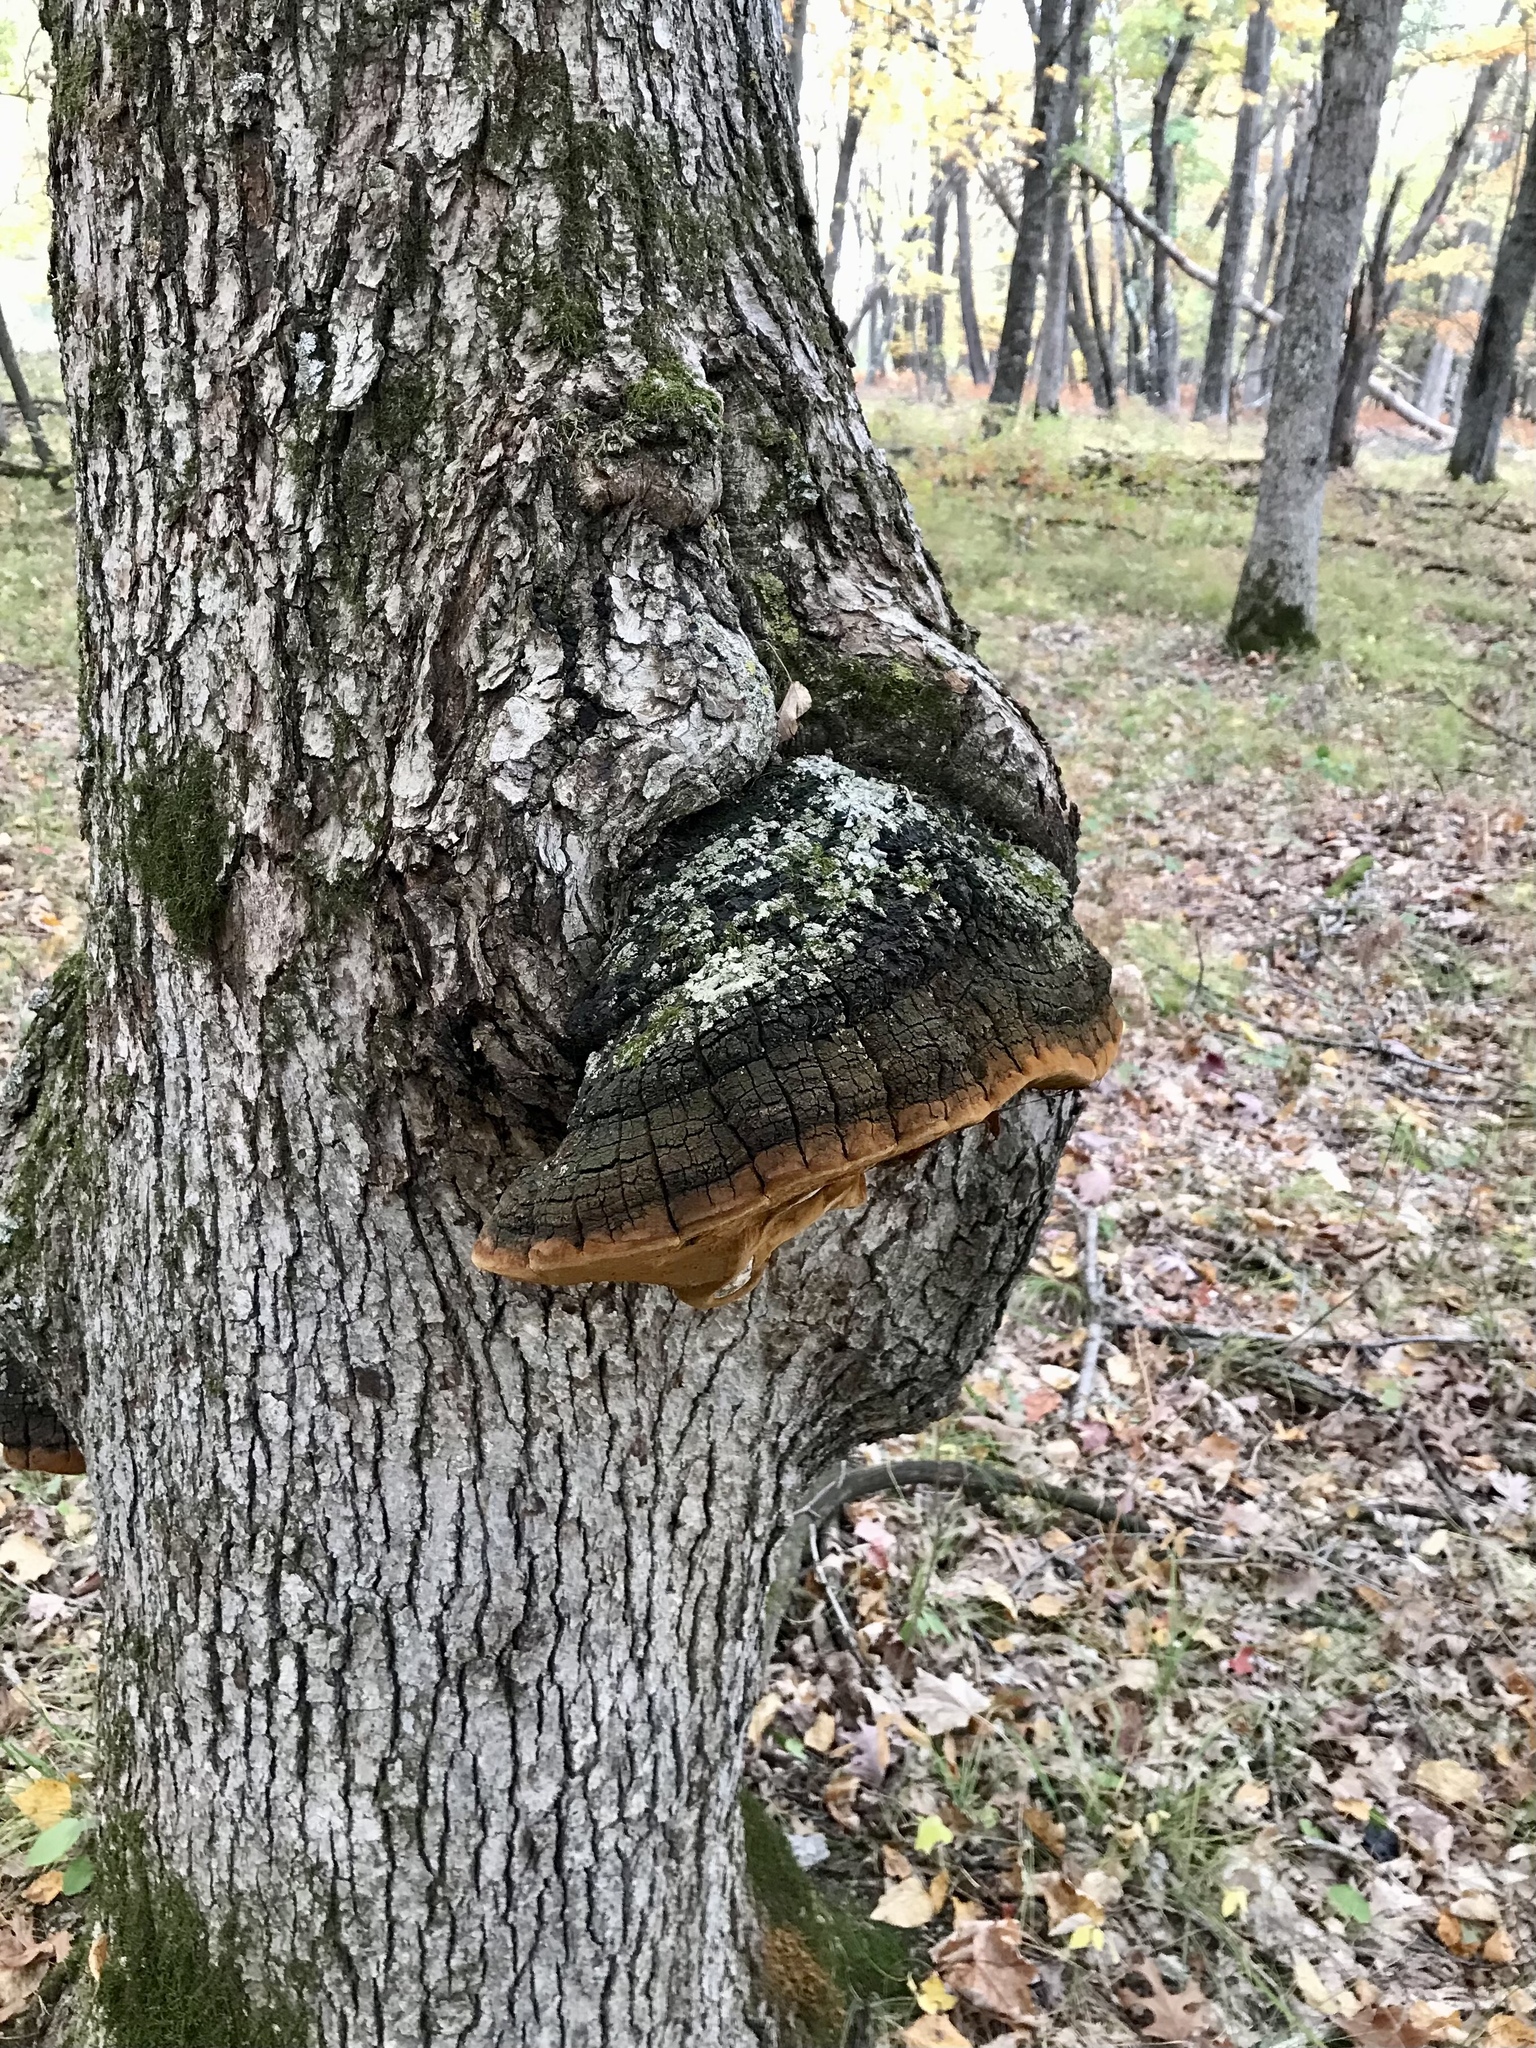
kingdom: Fungi
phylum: Basidiomycota
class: Agaricomycetes
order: Hymenochaetales
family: Hymenochaetaceae
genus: Meganotus
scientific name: Meganotus everhartii
